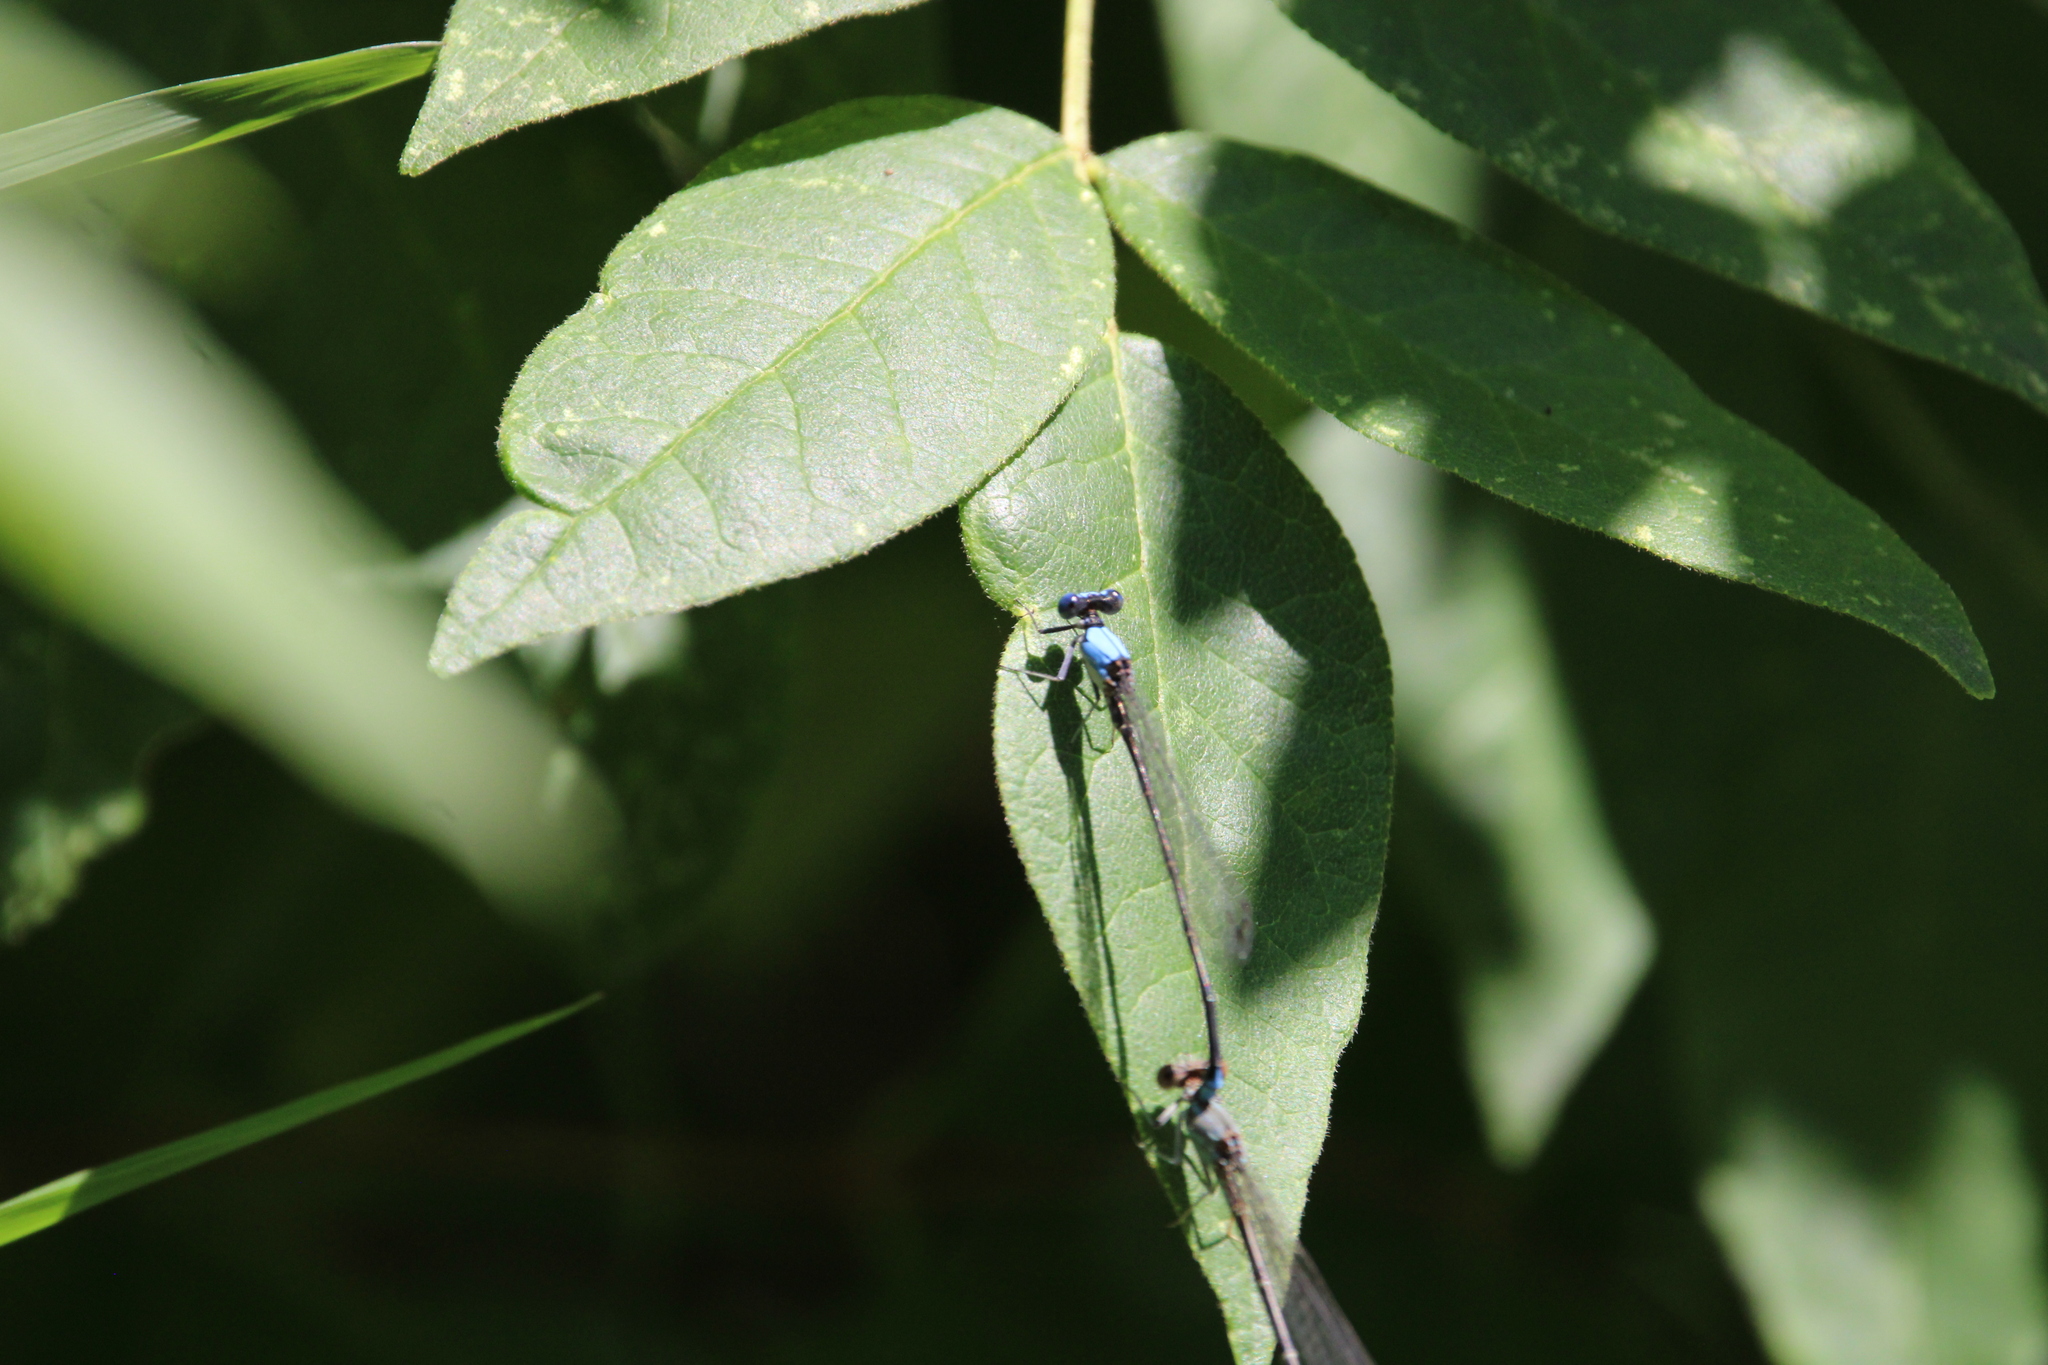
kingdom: Animalia
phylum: Arthropoda
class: Insecta
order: Odonata
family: Coenagrionidae
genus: Argia
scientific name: Argia apicalis
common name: Blue-fronted dancer
